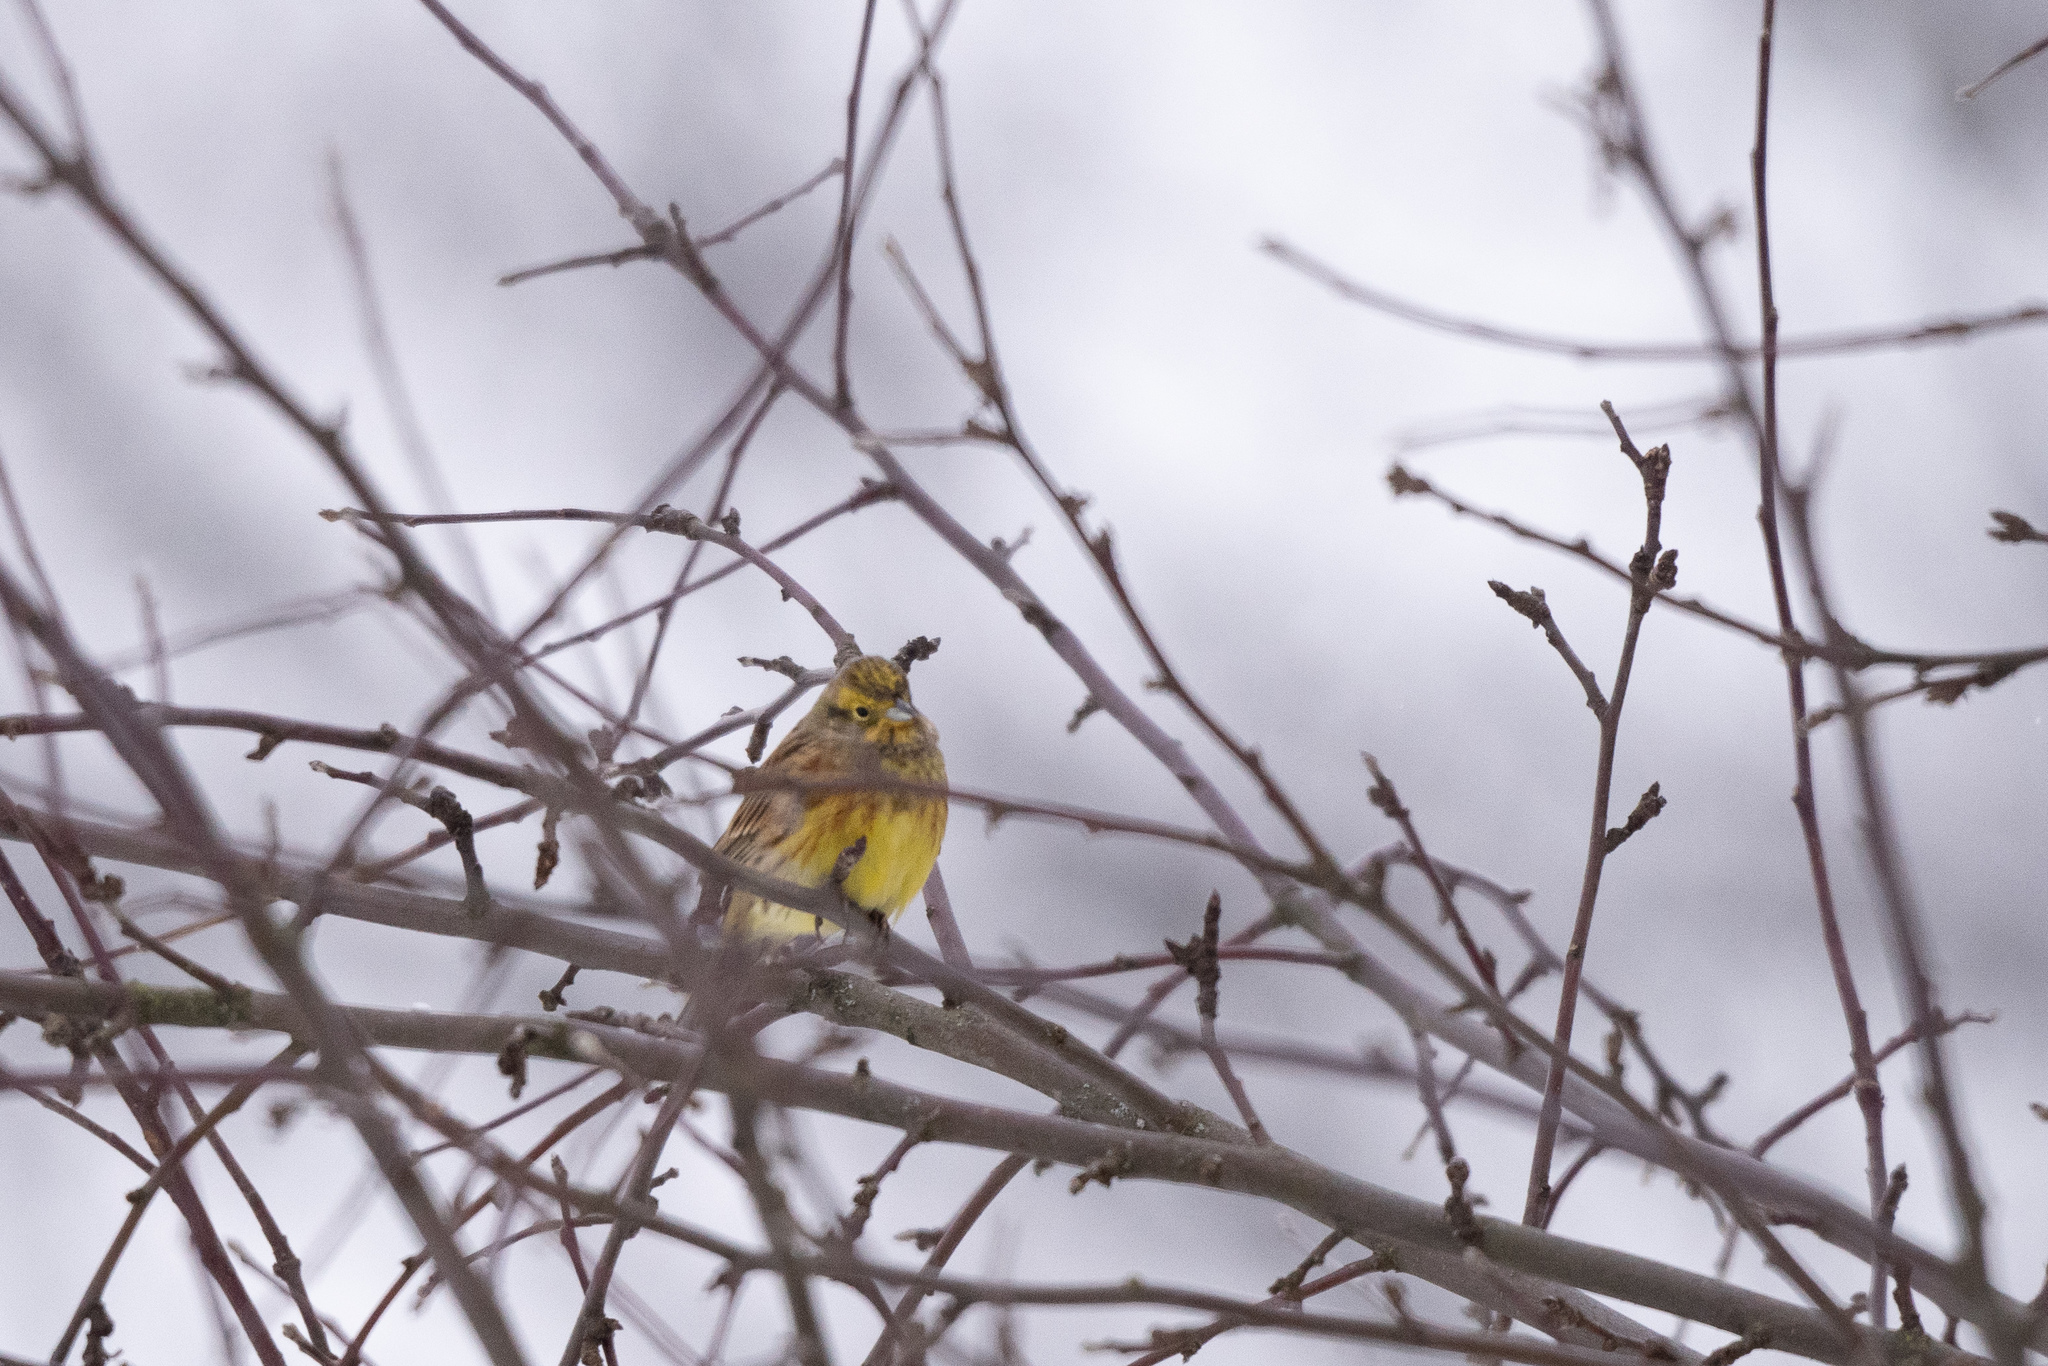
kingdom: Animalia
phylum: Chordata
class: Aves
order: Passeriformes
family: Emberizidae
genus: Emberiza
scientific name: Emberiza citrinella
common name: Yellowhammer
